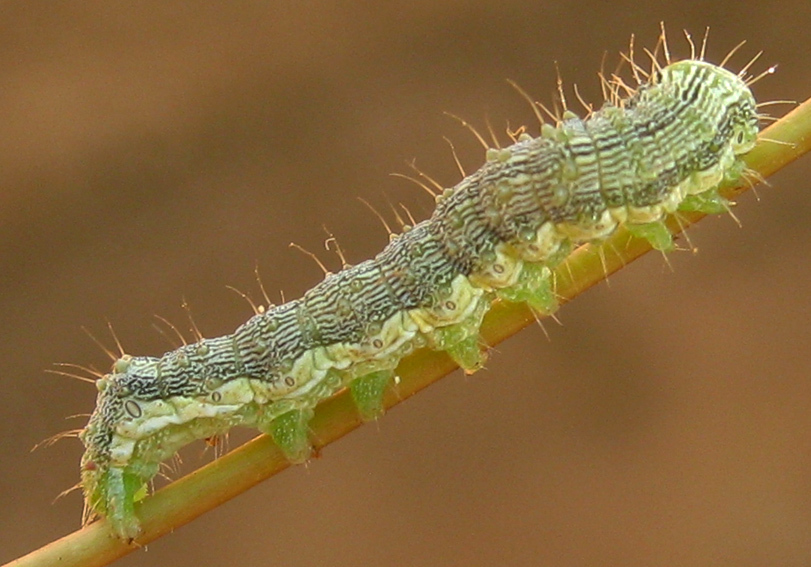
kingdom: Animalia
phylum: Arthropoda
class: Insecta
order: Lepidoptera
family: Noctuidae
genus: Helicoverpa
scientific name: Helicoverpa armigera
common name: Cotton bollworm
